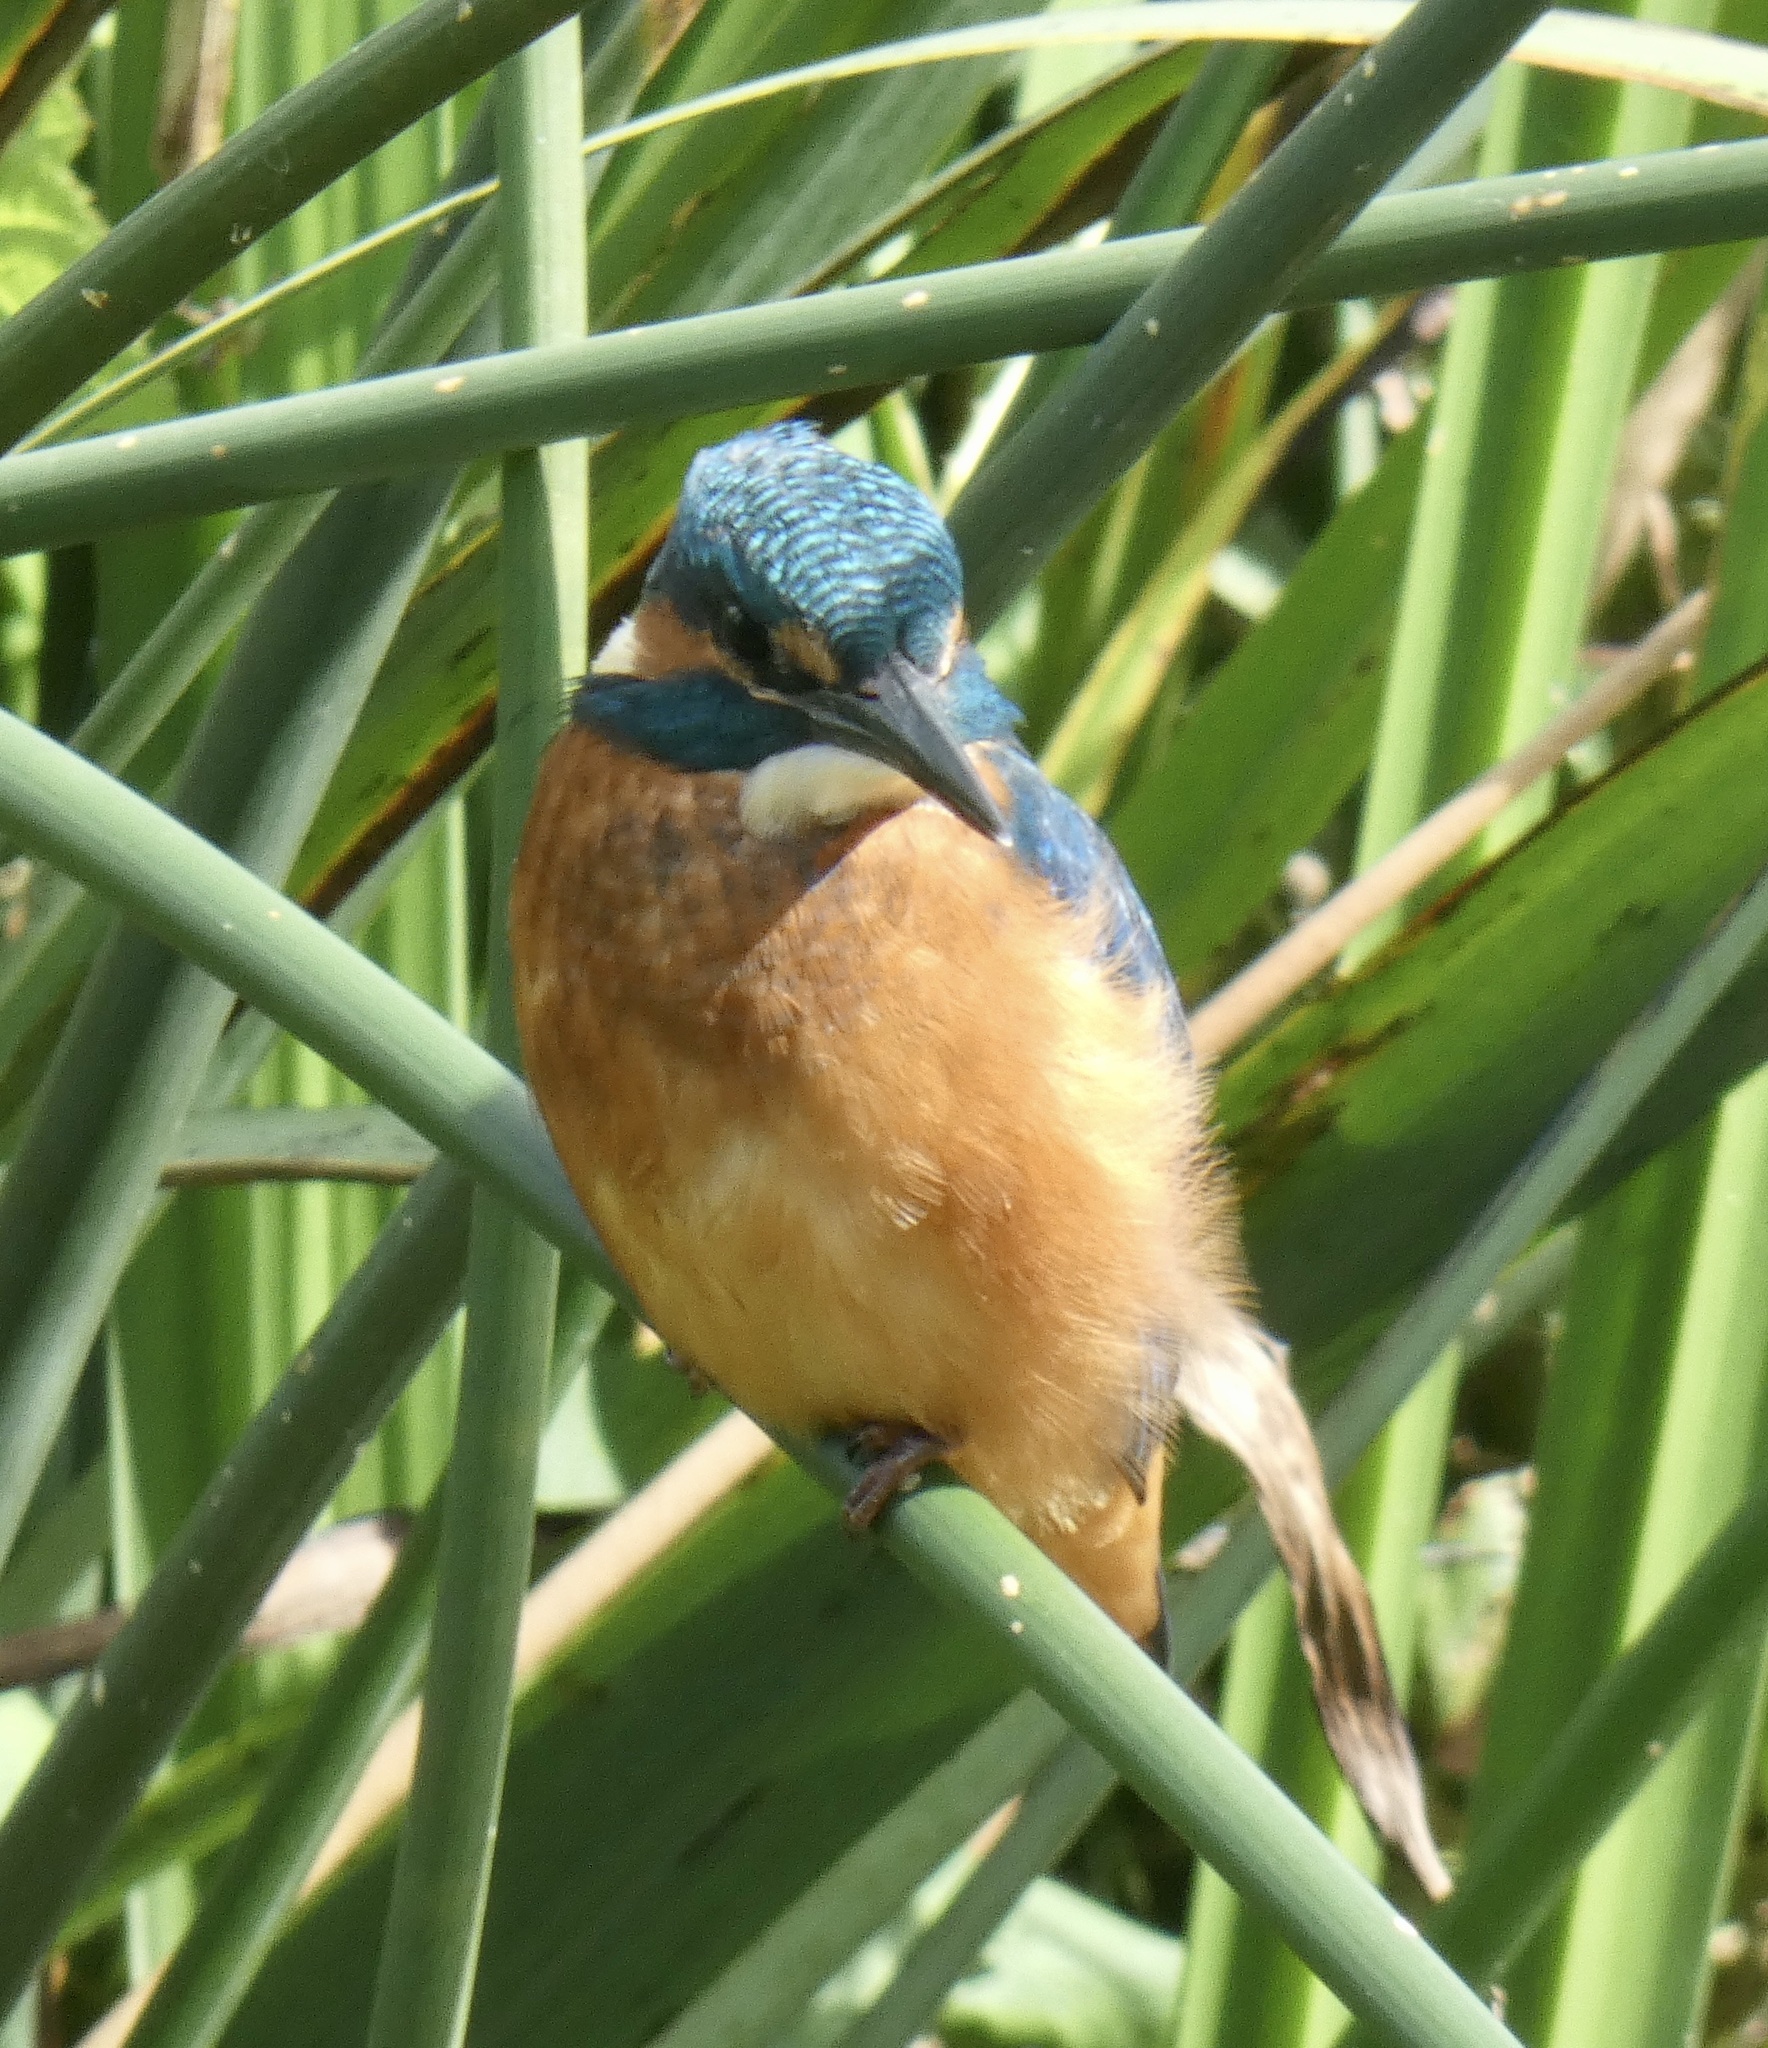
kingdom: Animalia
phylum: Chordata
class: Aves
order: Coraciiformes
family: Alcedinidae
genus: Alcedo
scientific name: Alcedo atthis
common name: Common kingfisher
